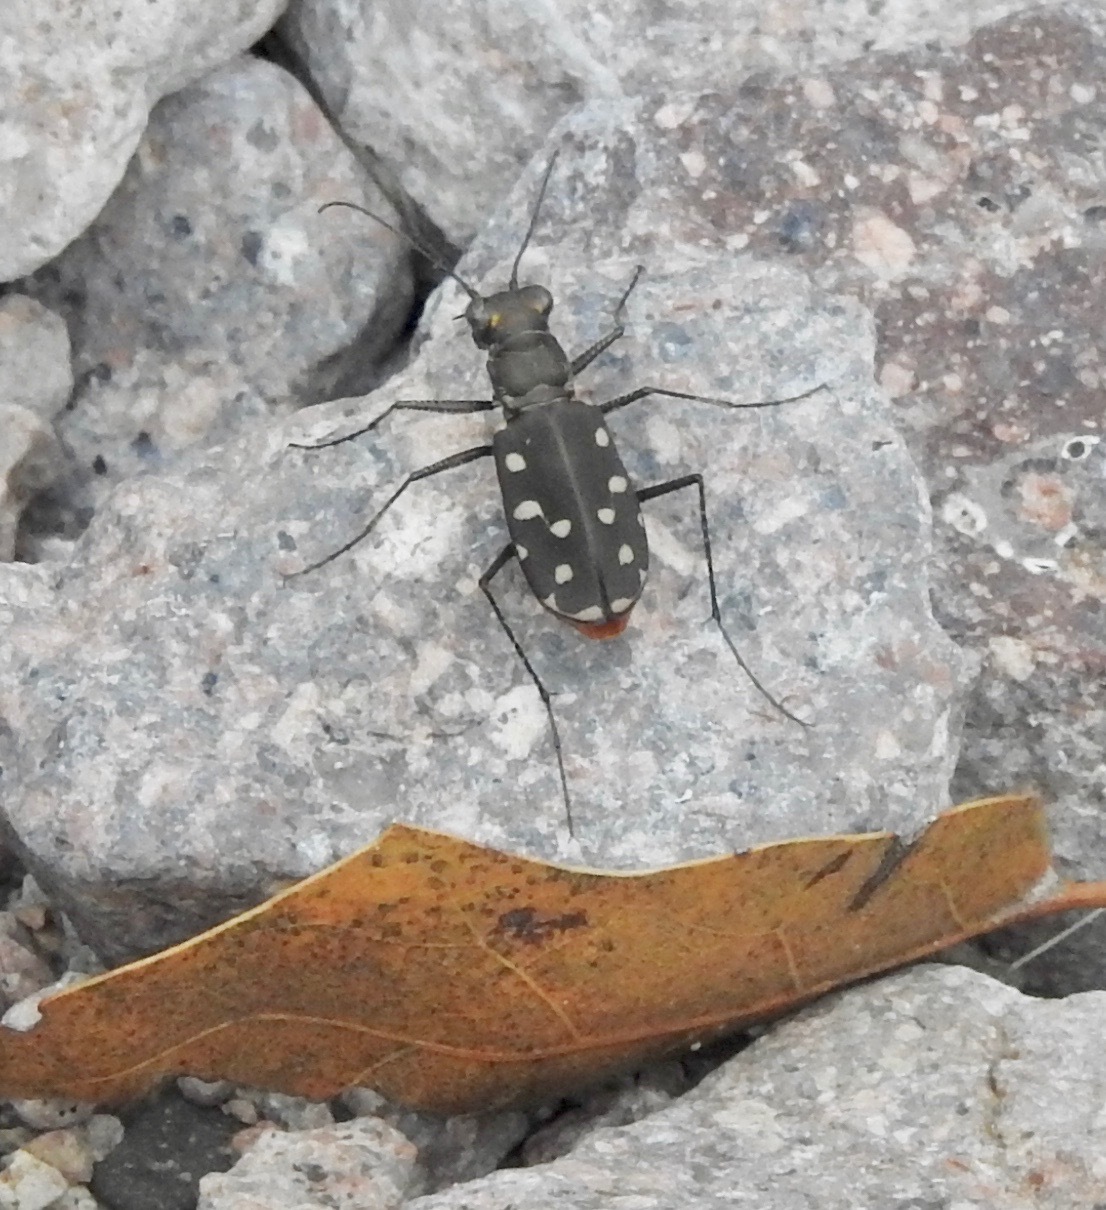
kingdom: Animalia
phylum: Arthropoda
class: Insecta
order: Coleoptera
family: Carabidae
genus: Cicindela
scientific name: Cicindela sedecimpunctata
